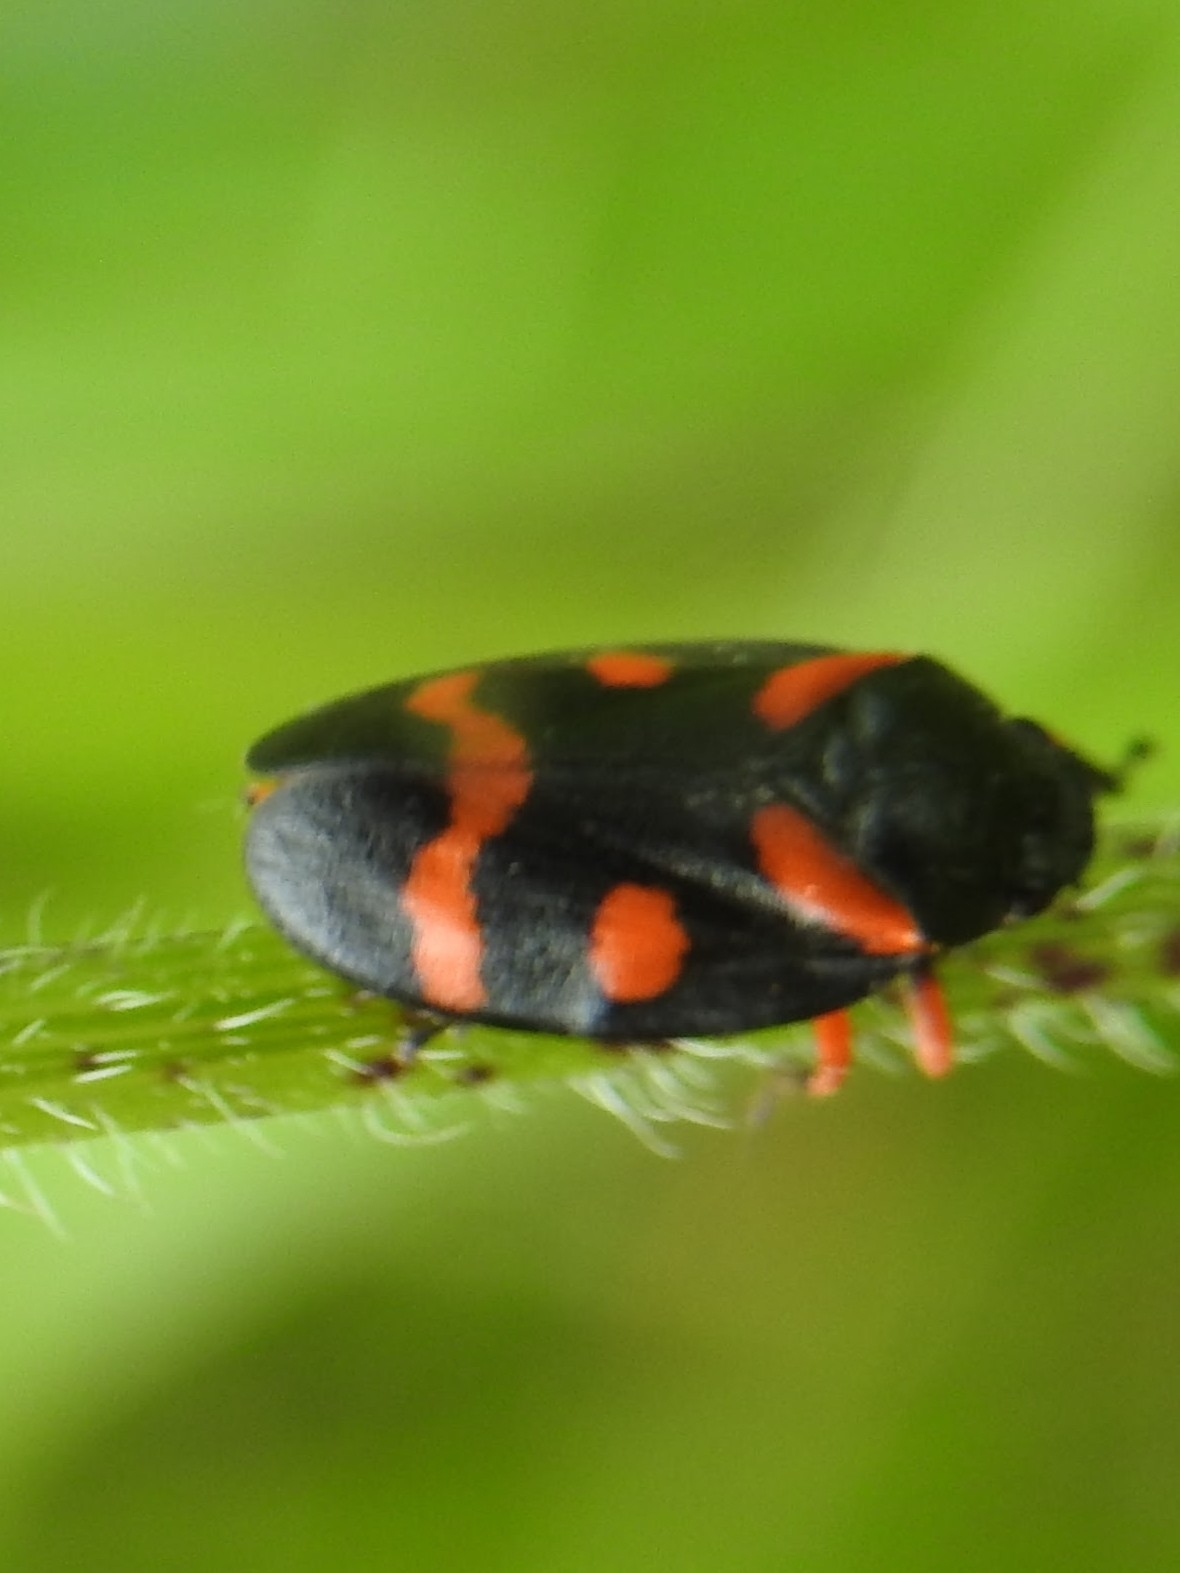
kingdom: Animalia
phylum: Arthropoda
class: Insecta
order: Hemiptera
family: Cercopidae
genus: Cercopis
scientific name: Cercopis intermedia
